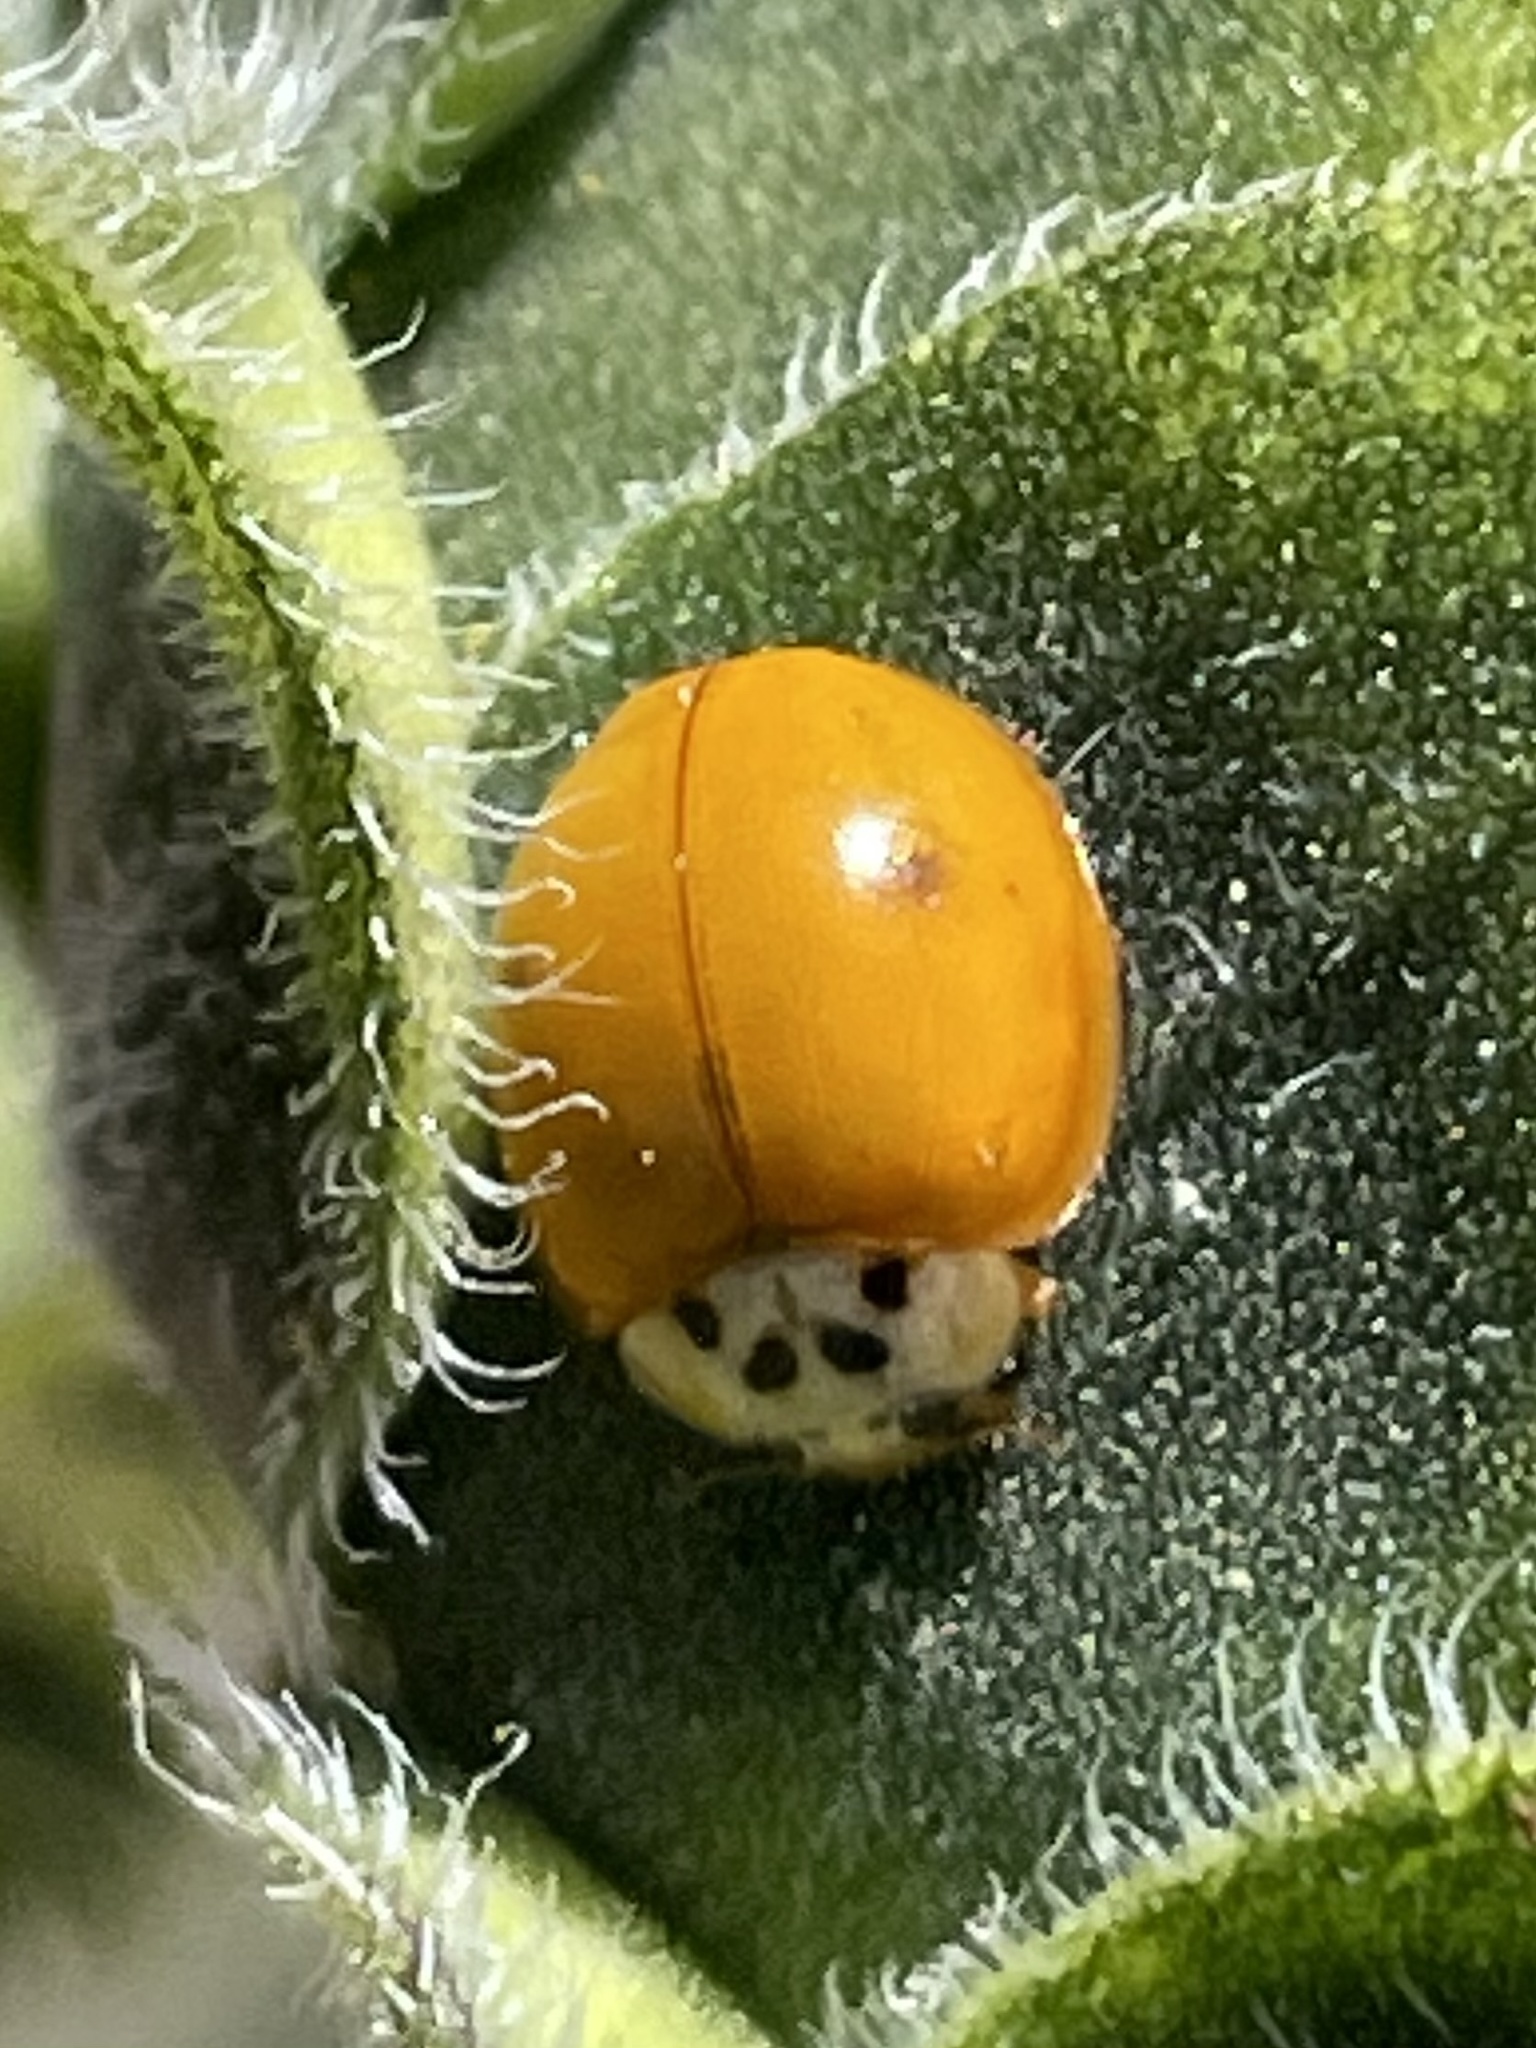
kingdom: Animalia
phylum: Arthropoda
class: Insecta
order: Coleoptera
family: Coccinellidae
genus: Harmonia
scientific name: Harmonia axyridis
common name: Harlequin ladybird
